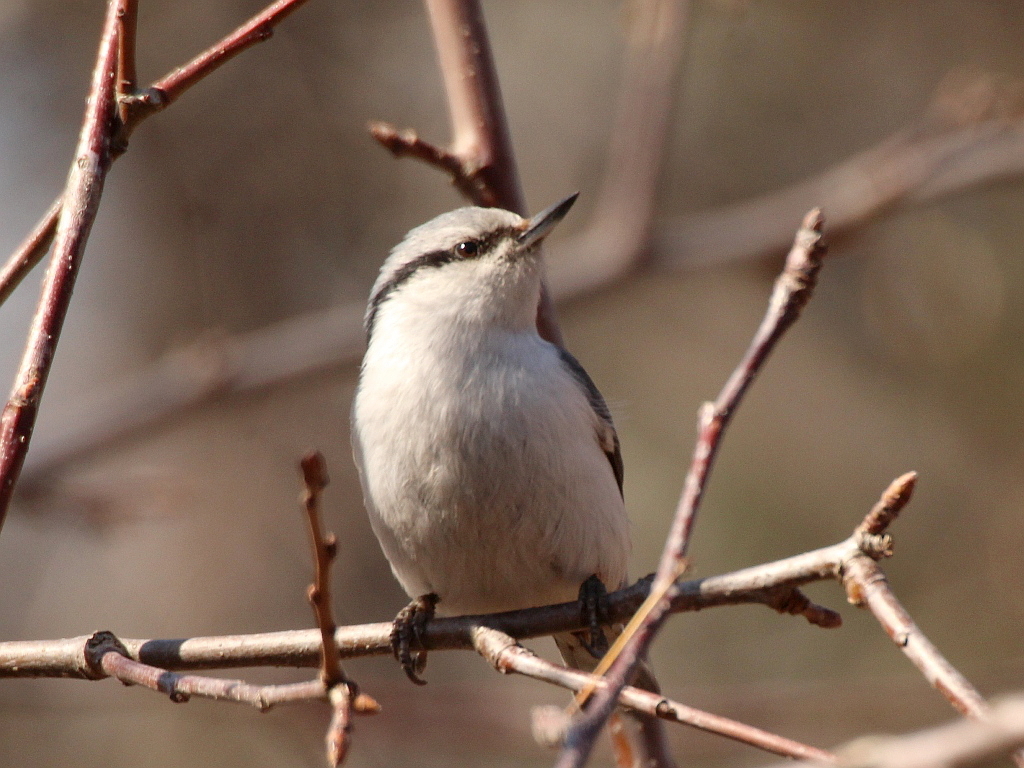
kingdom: Animalia
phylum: Chordata
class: Aves
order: Passeriformes
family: Sittidae
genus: Sitta
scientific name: Sitta europaea
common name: Eurasian nuthatch
